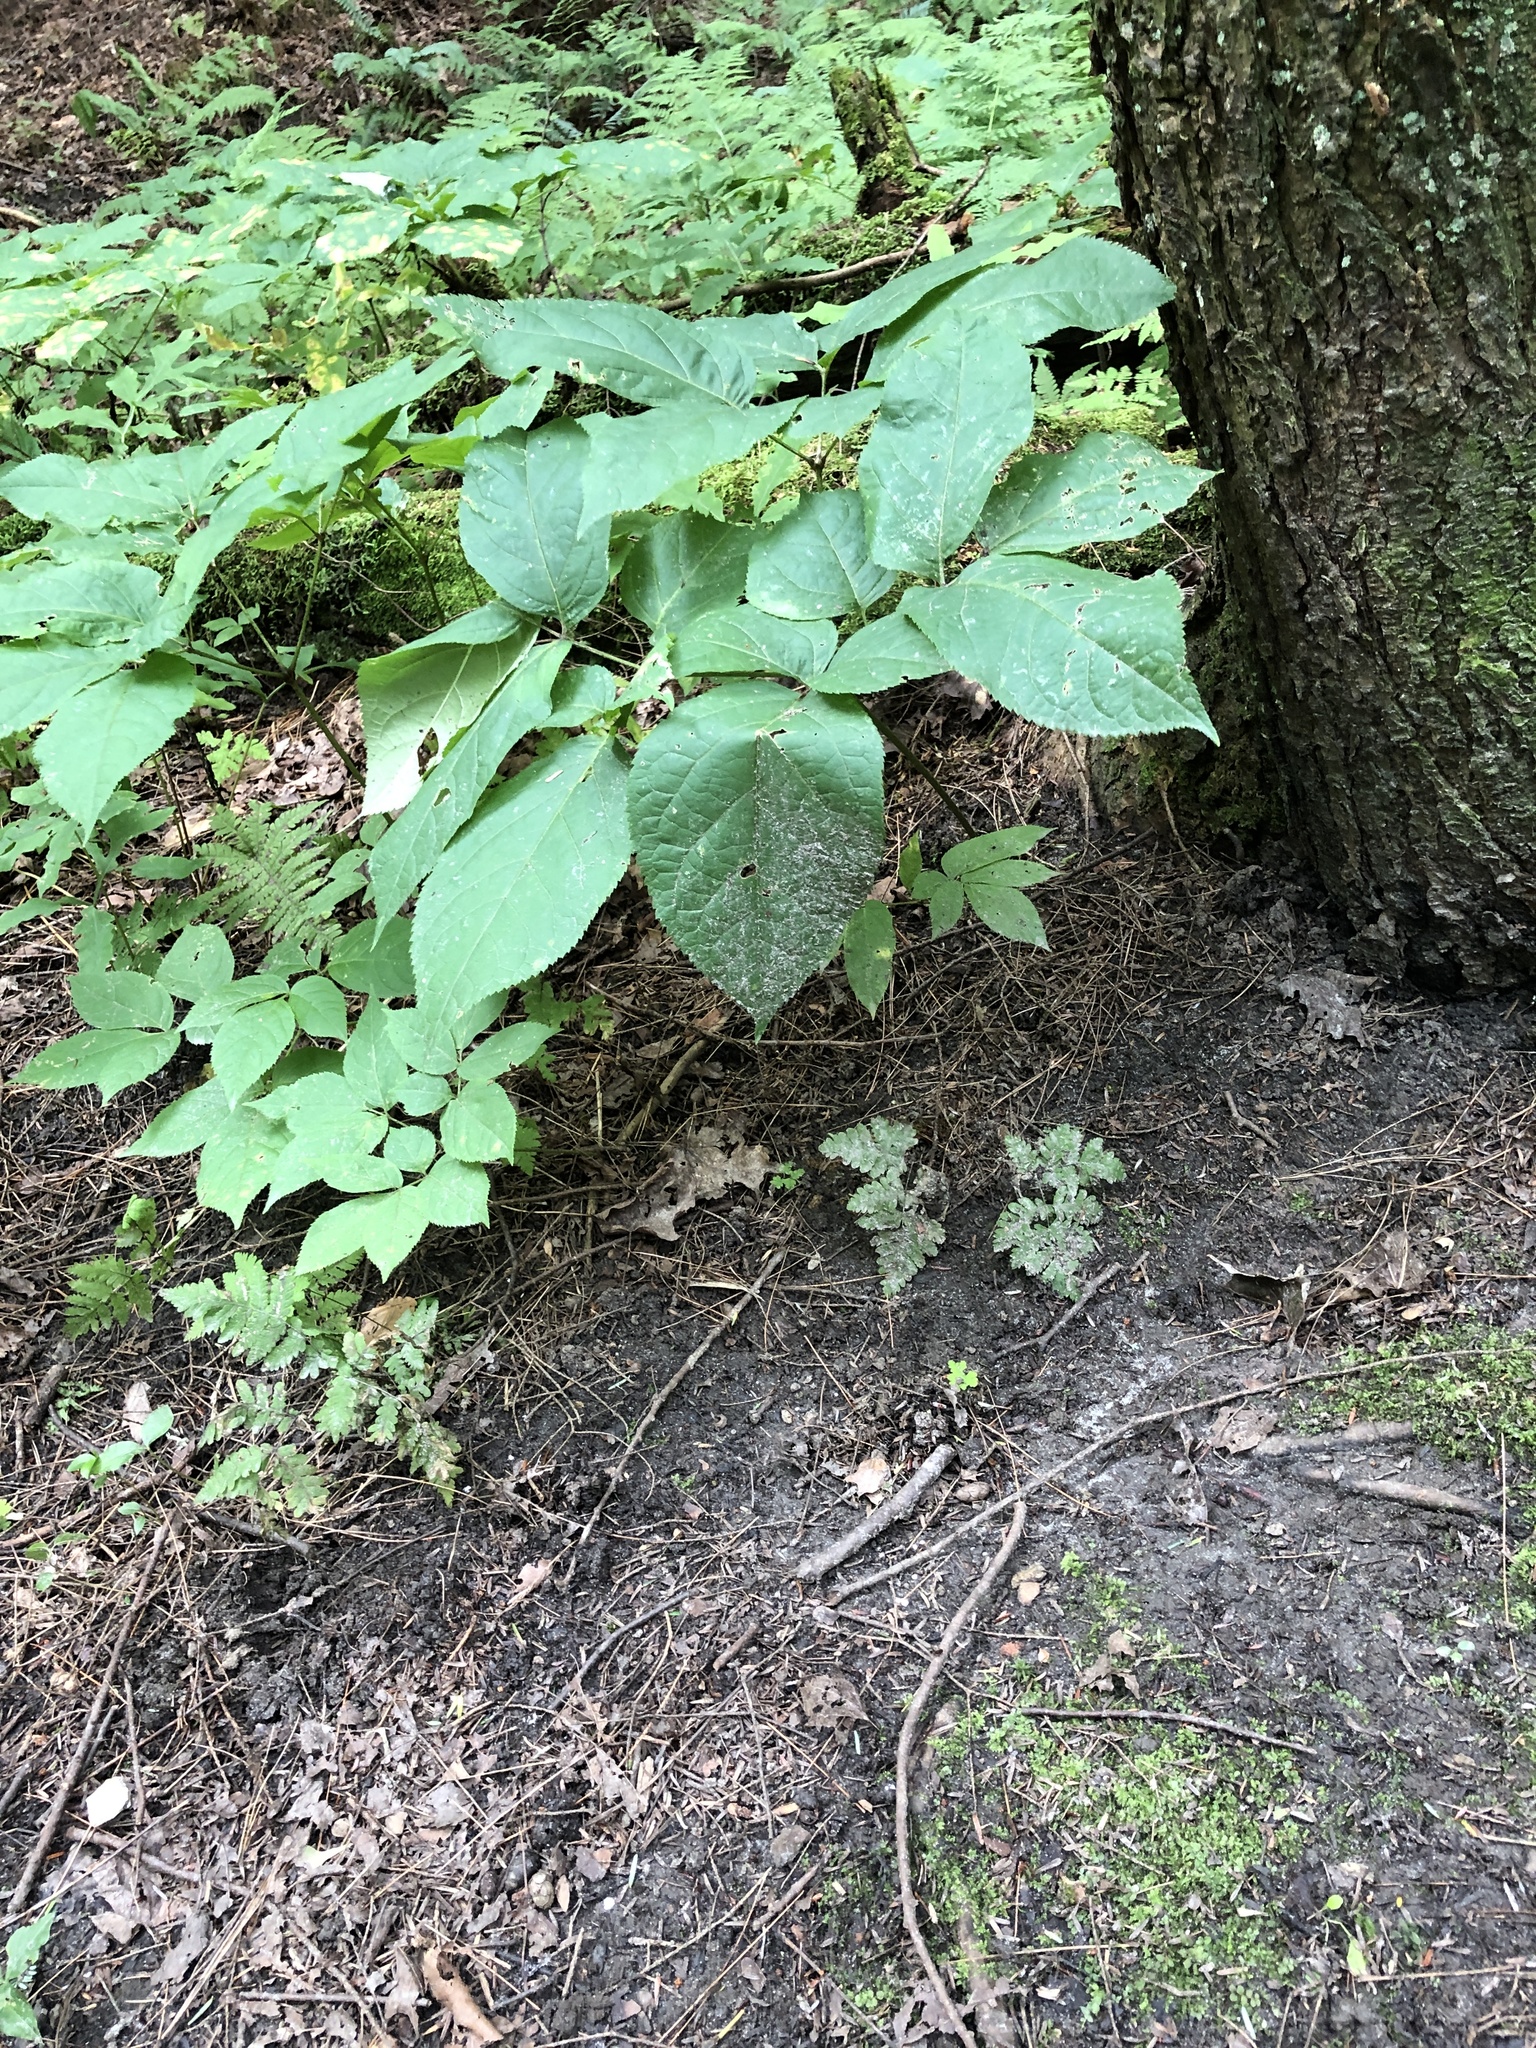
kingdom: Plantae
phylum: Tracheophyta
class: Magnoliopsida
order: Apiales
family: Araliaceae
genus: Aralia
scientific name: Aralia nudicaulis
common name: Wild sarsaparilla
